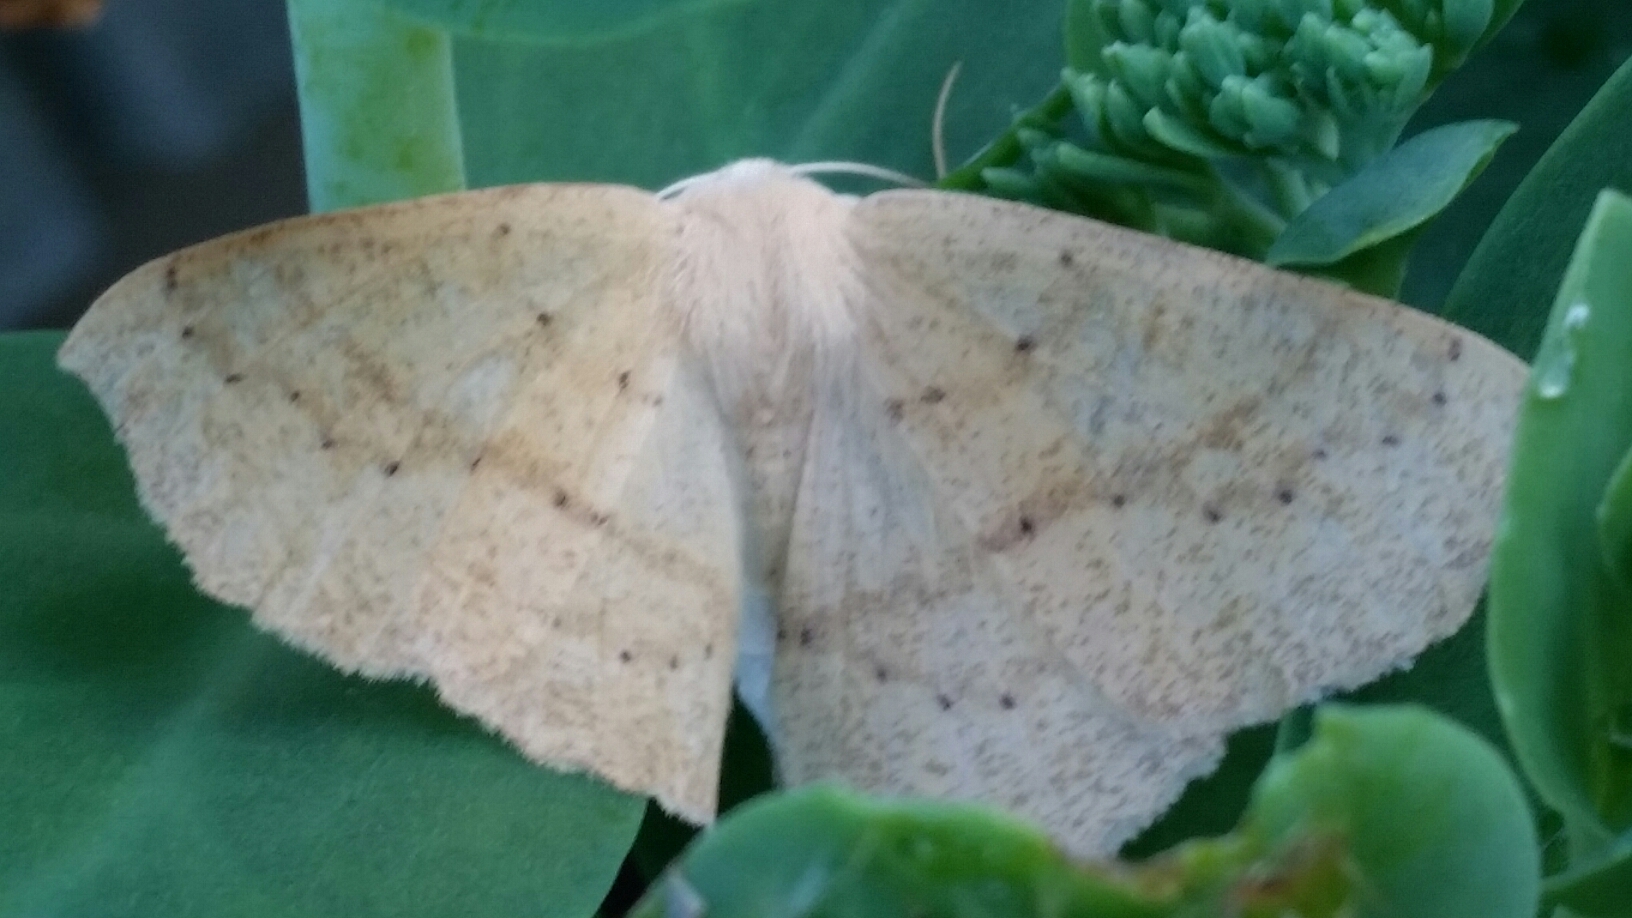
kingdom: Animalia
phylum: Arthropoda
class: Insecta
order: Lepidoptera
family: Geometridae
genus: Sabulodes
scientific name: Sabulodes aegrotata
